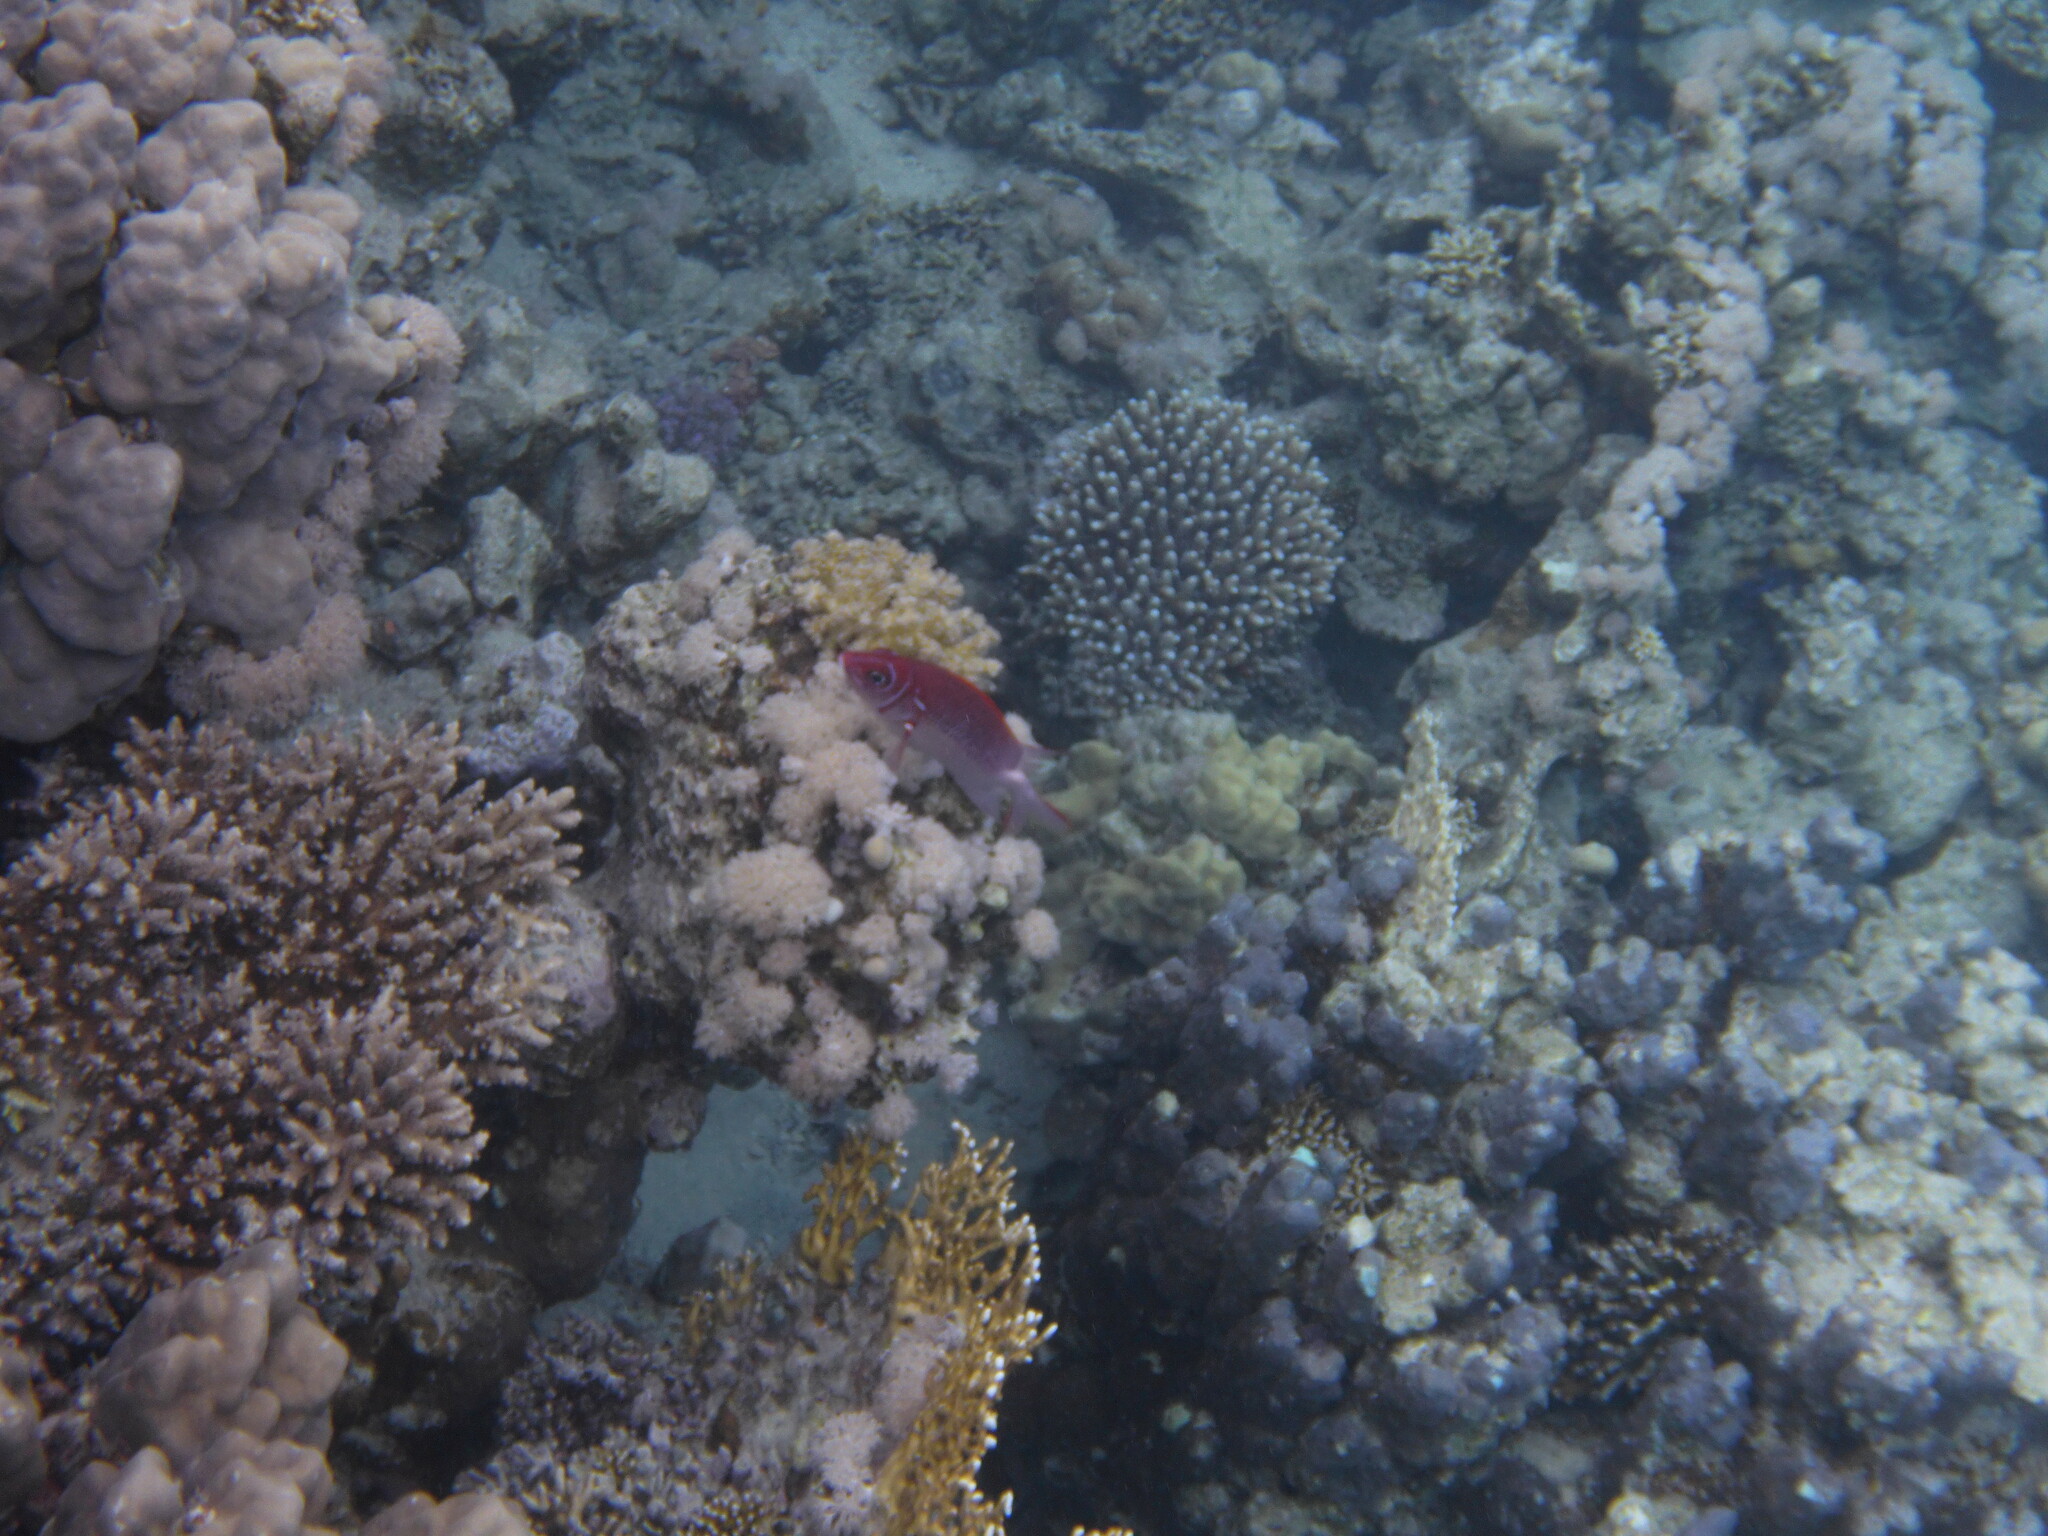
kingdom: Animalia
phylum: Chordata
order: Beryciformes
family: Holocentridae
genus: Sargocentron
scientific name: Sargocentron caudimaculatum
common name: Fanfin soldier
